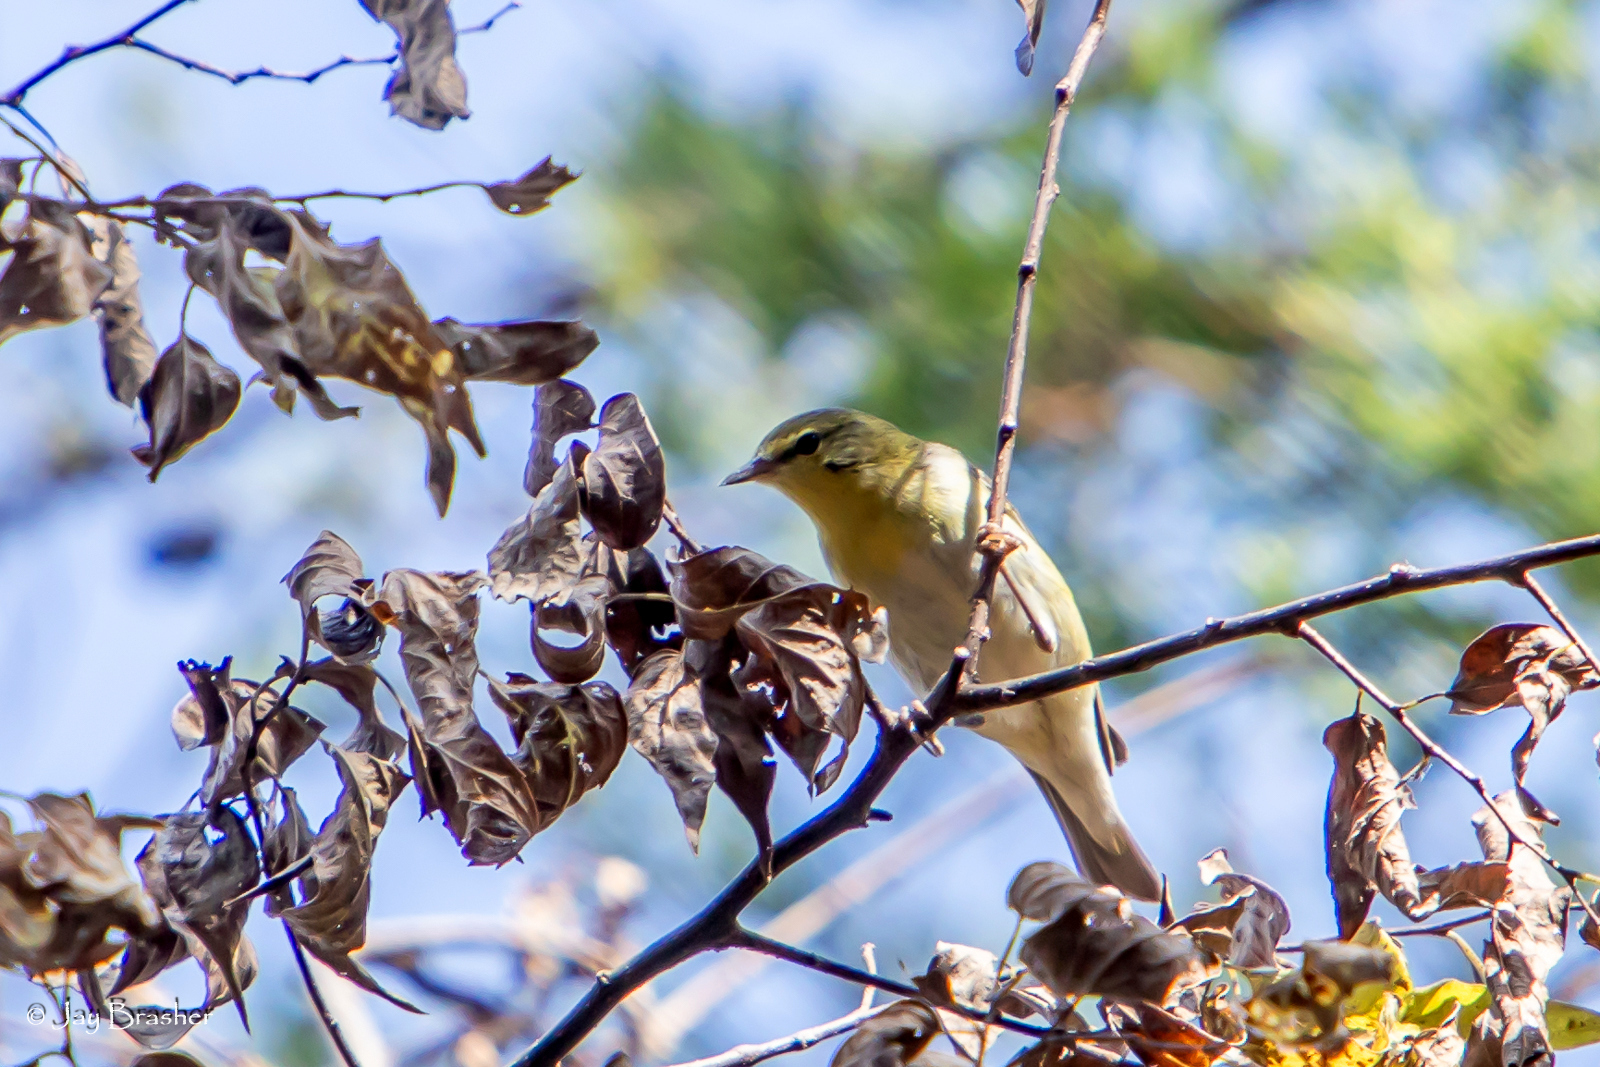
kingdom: Animalia
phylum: Chordata
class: Aves
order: Passeriformes
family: Parulidae
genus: Leiothlypis
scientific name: Leiothlypis peregrina
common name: Tennessee warbler
